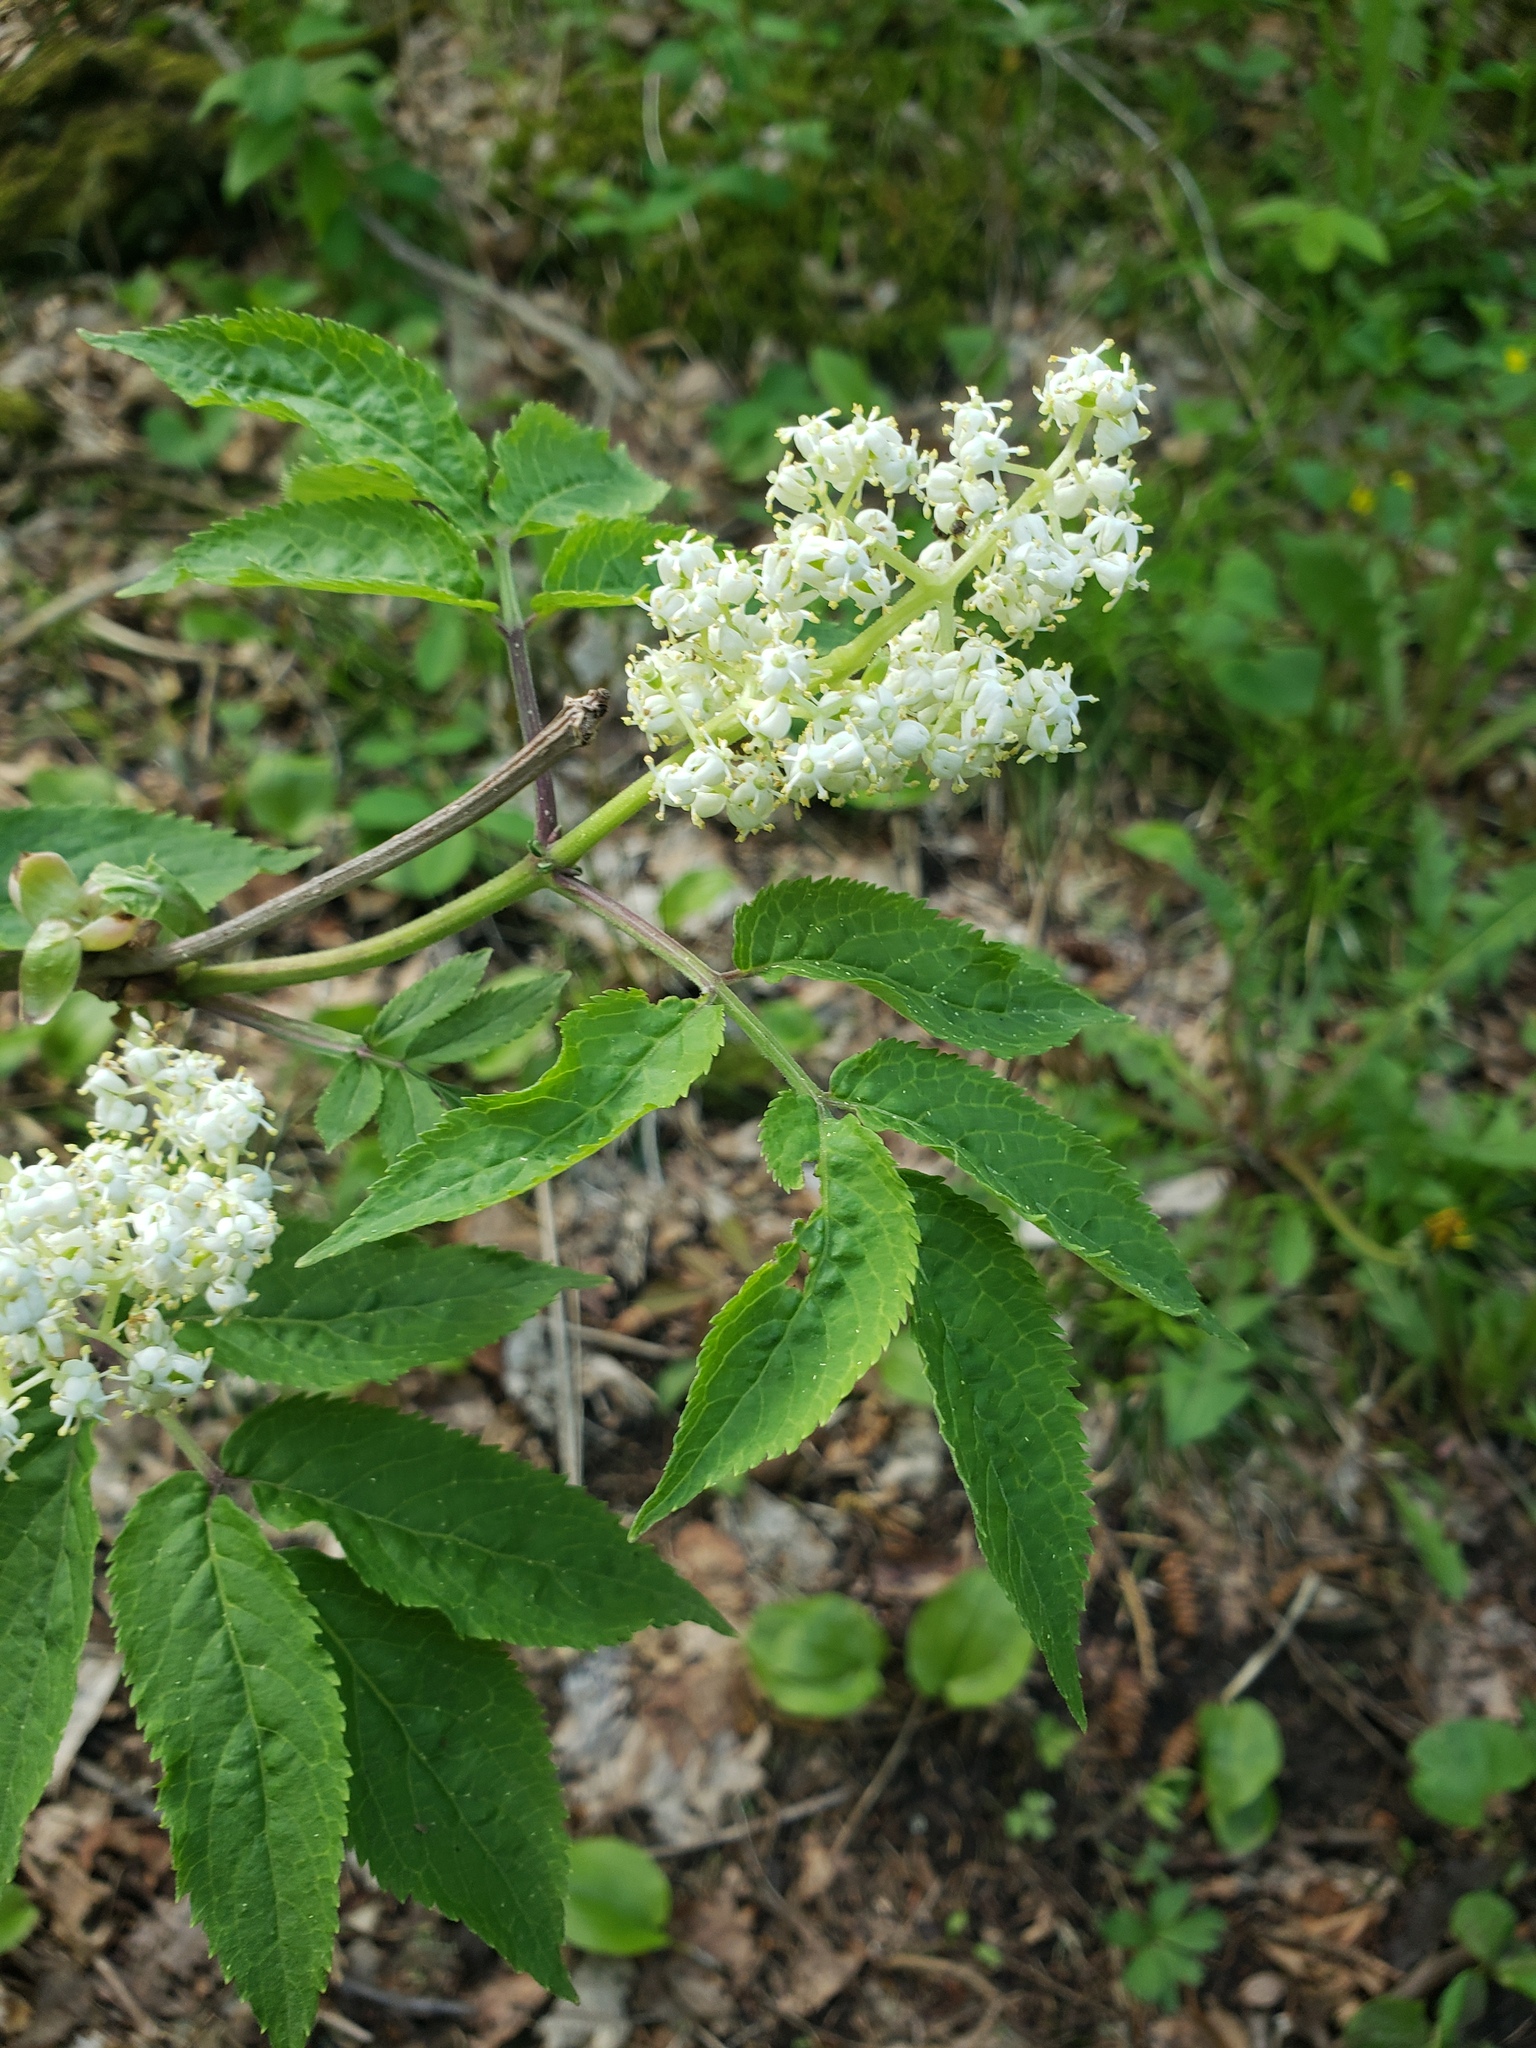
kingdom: Plantae
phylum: Tracheophyta
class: Magnoliopsida
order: Dipsacales
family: Viburnaceae
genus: Sambucus
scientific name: Sambucus racemosa
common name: Red-berried elder
